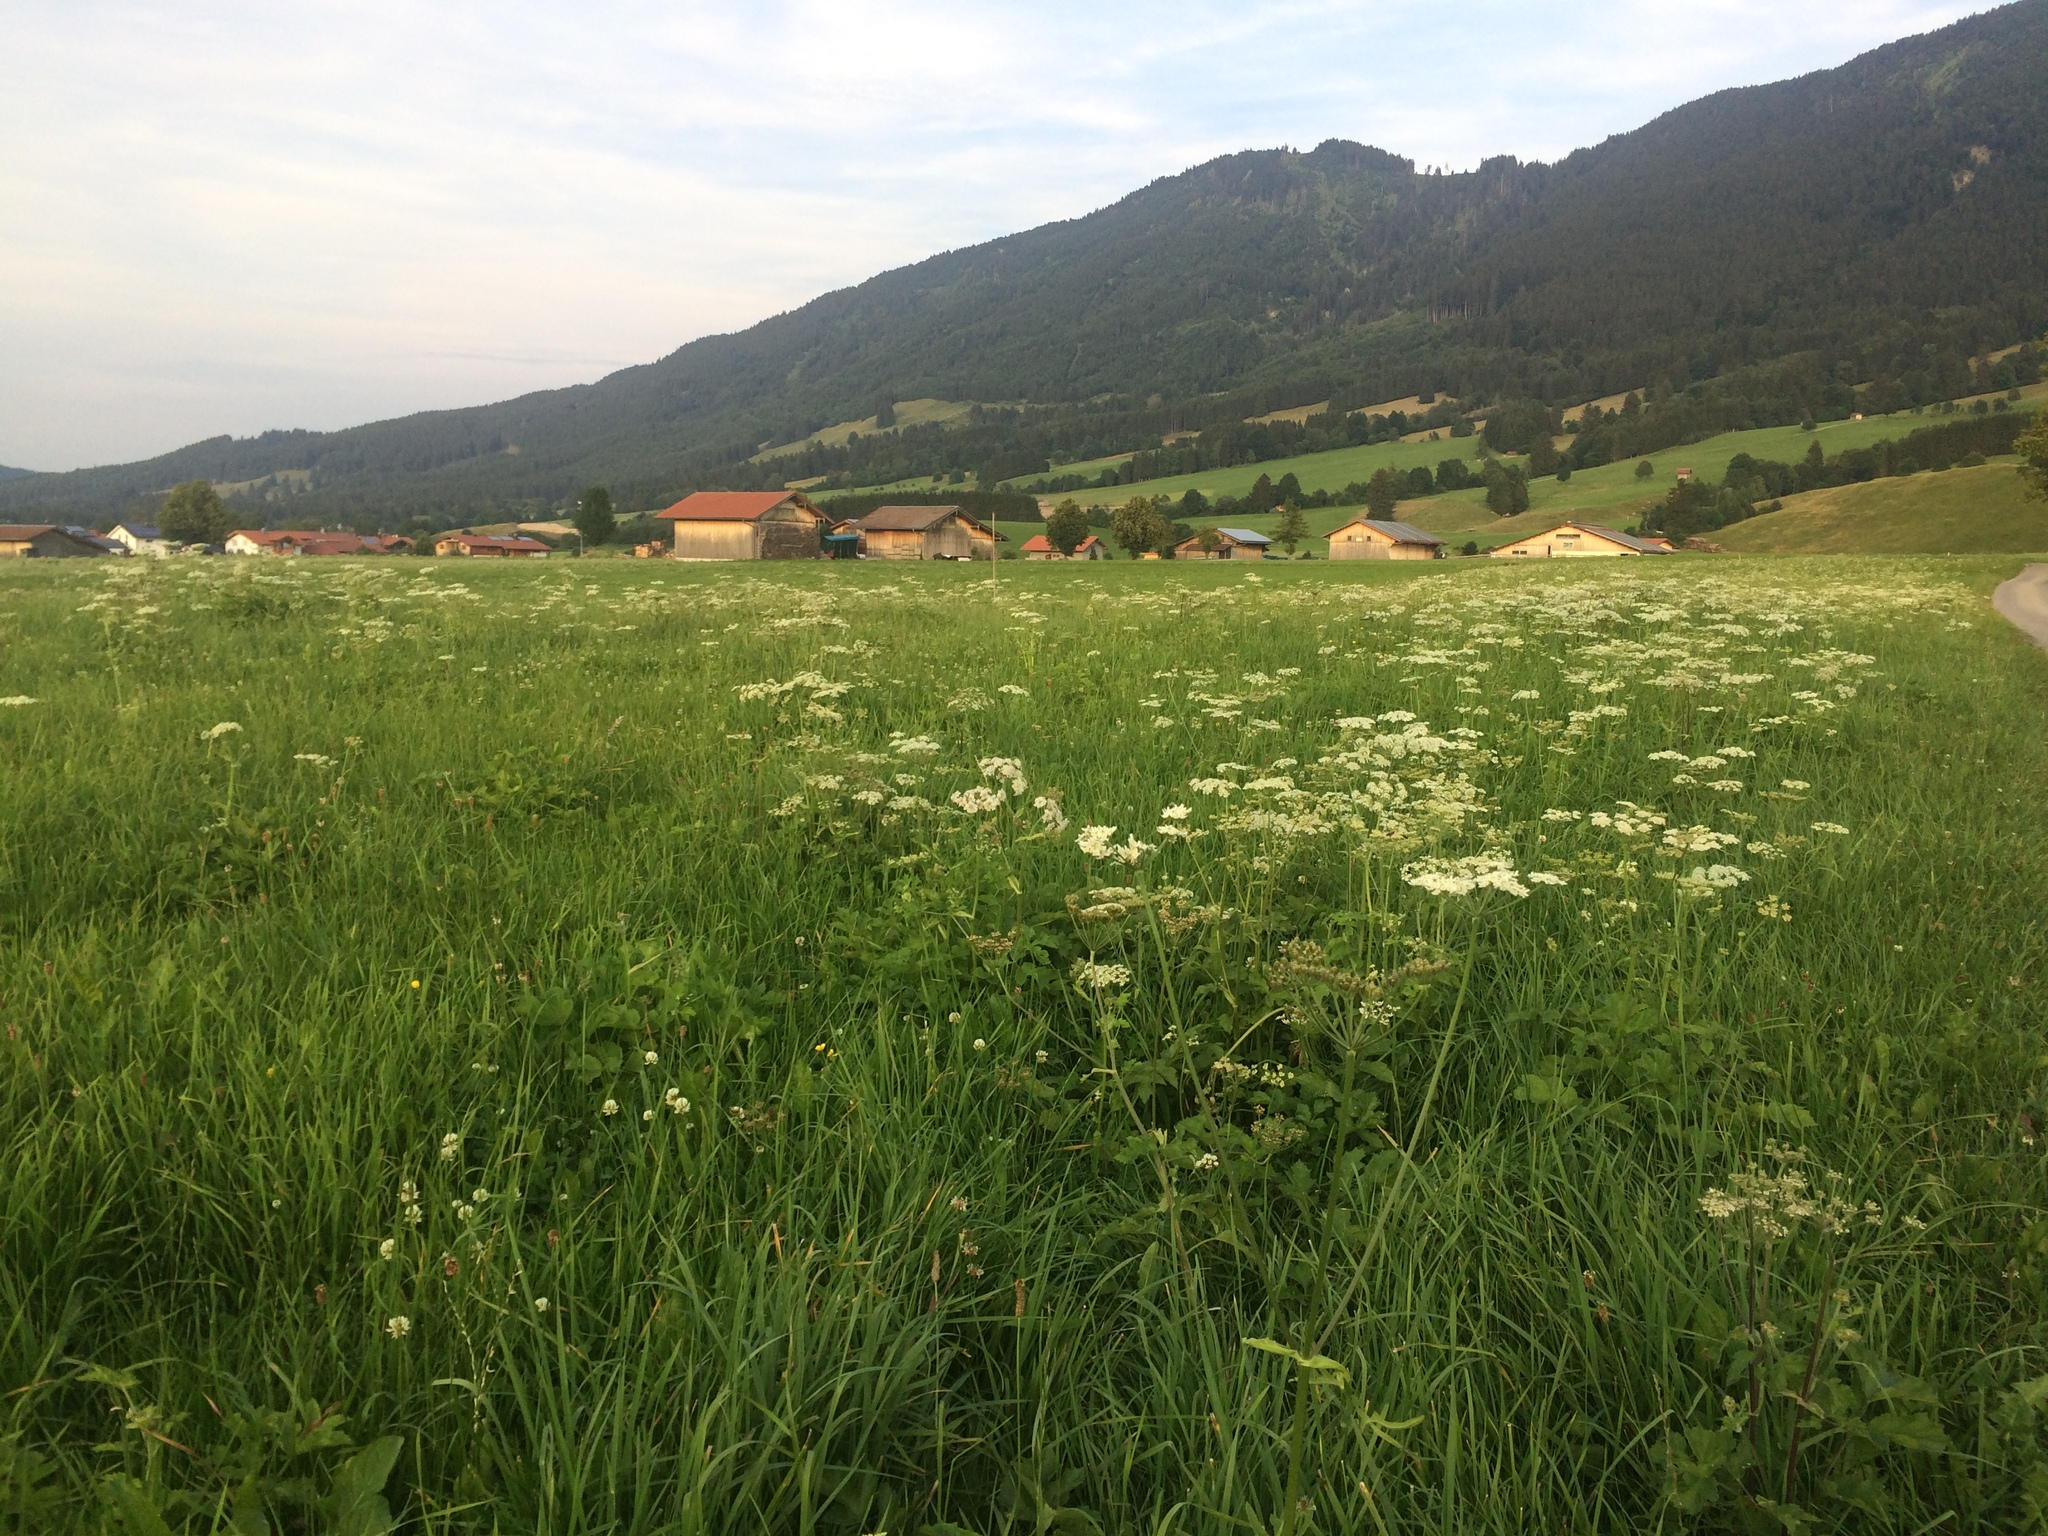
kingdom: Plantae
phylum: Tracheophyta
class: Magnoliopsida
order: Apiales
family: Apiaceae
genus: Heracleum
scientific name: Heracleum sphondylium
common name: Hogweed
